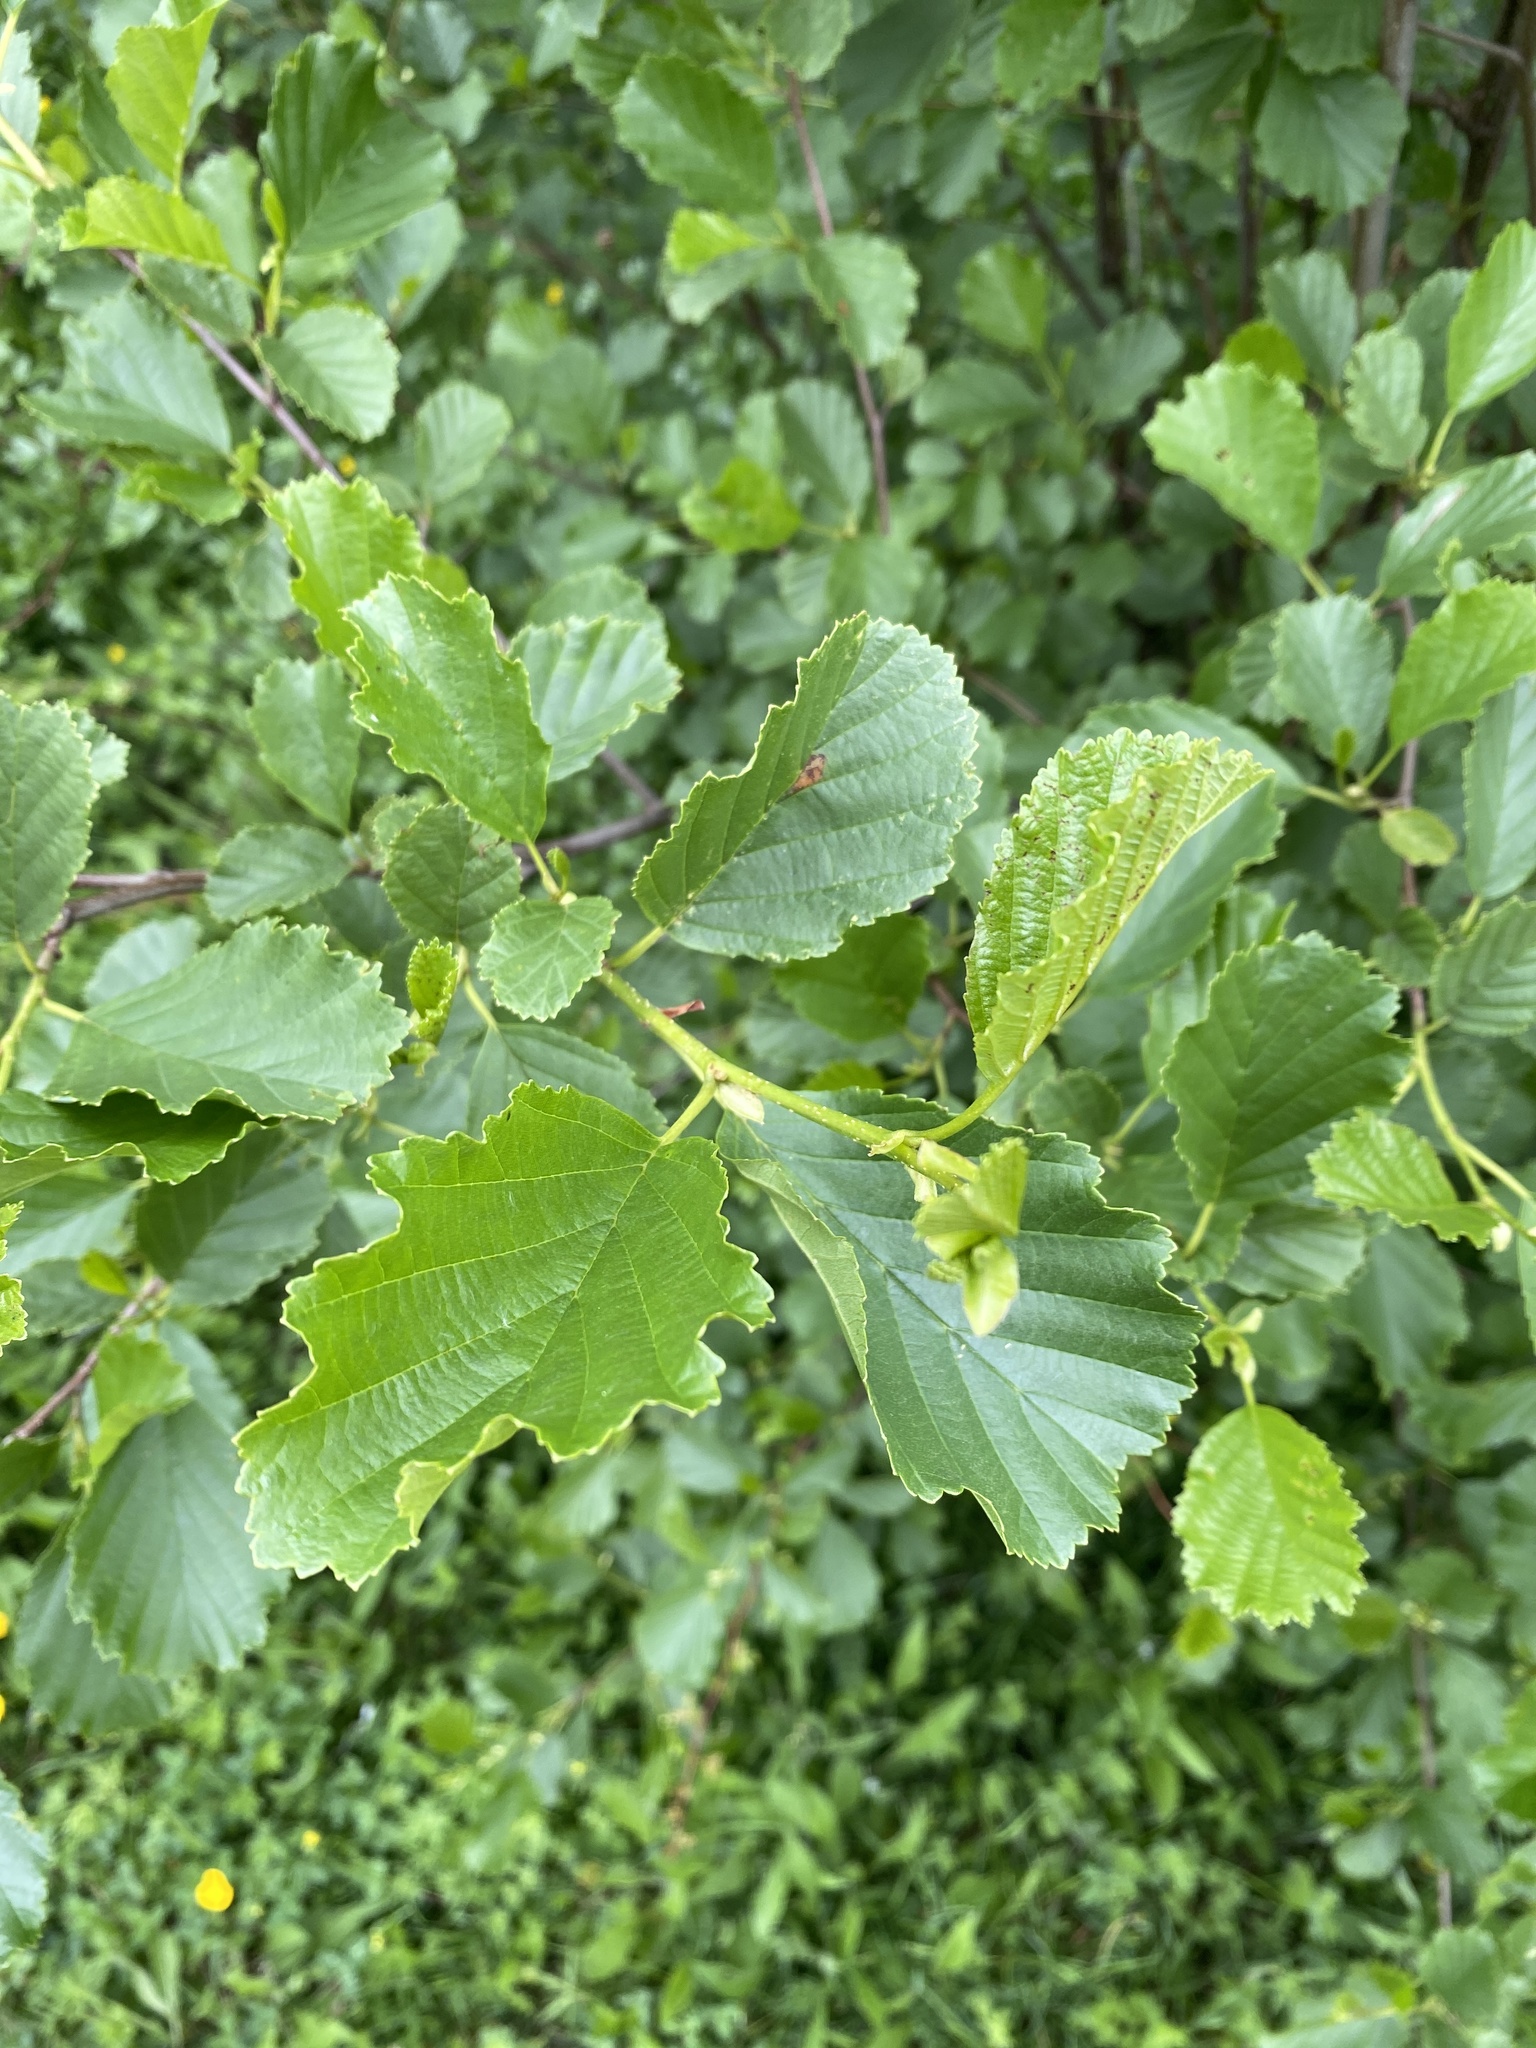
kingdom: Plantae
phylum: Tracheophyta
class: Magnoliopsida
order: Fagales
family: Betulaceae
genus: Alnus
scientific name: Alnus glutinosa
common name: Black alder
